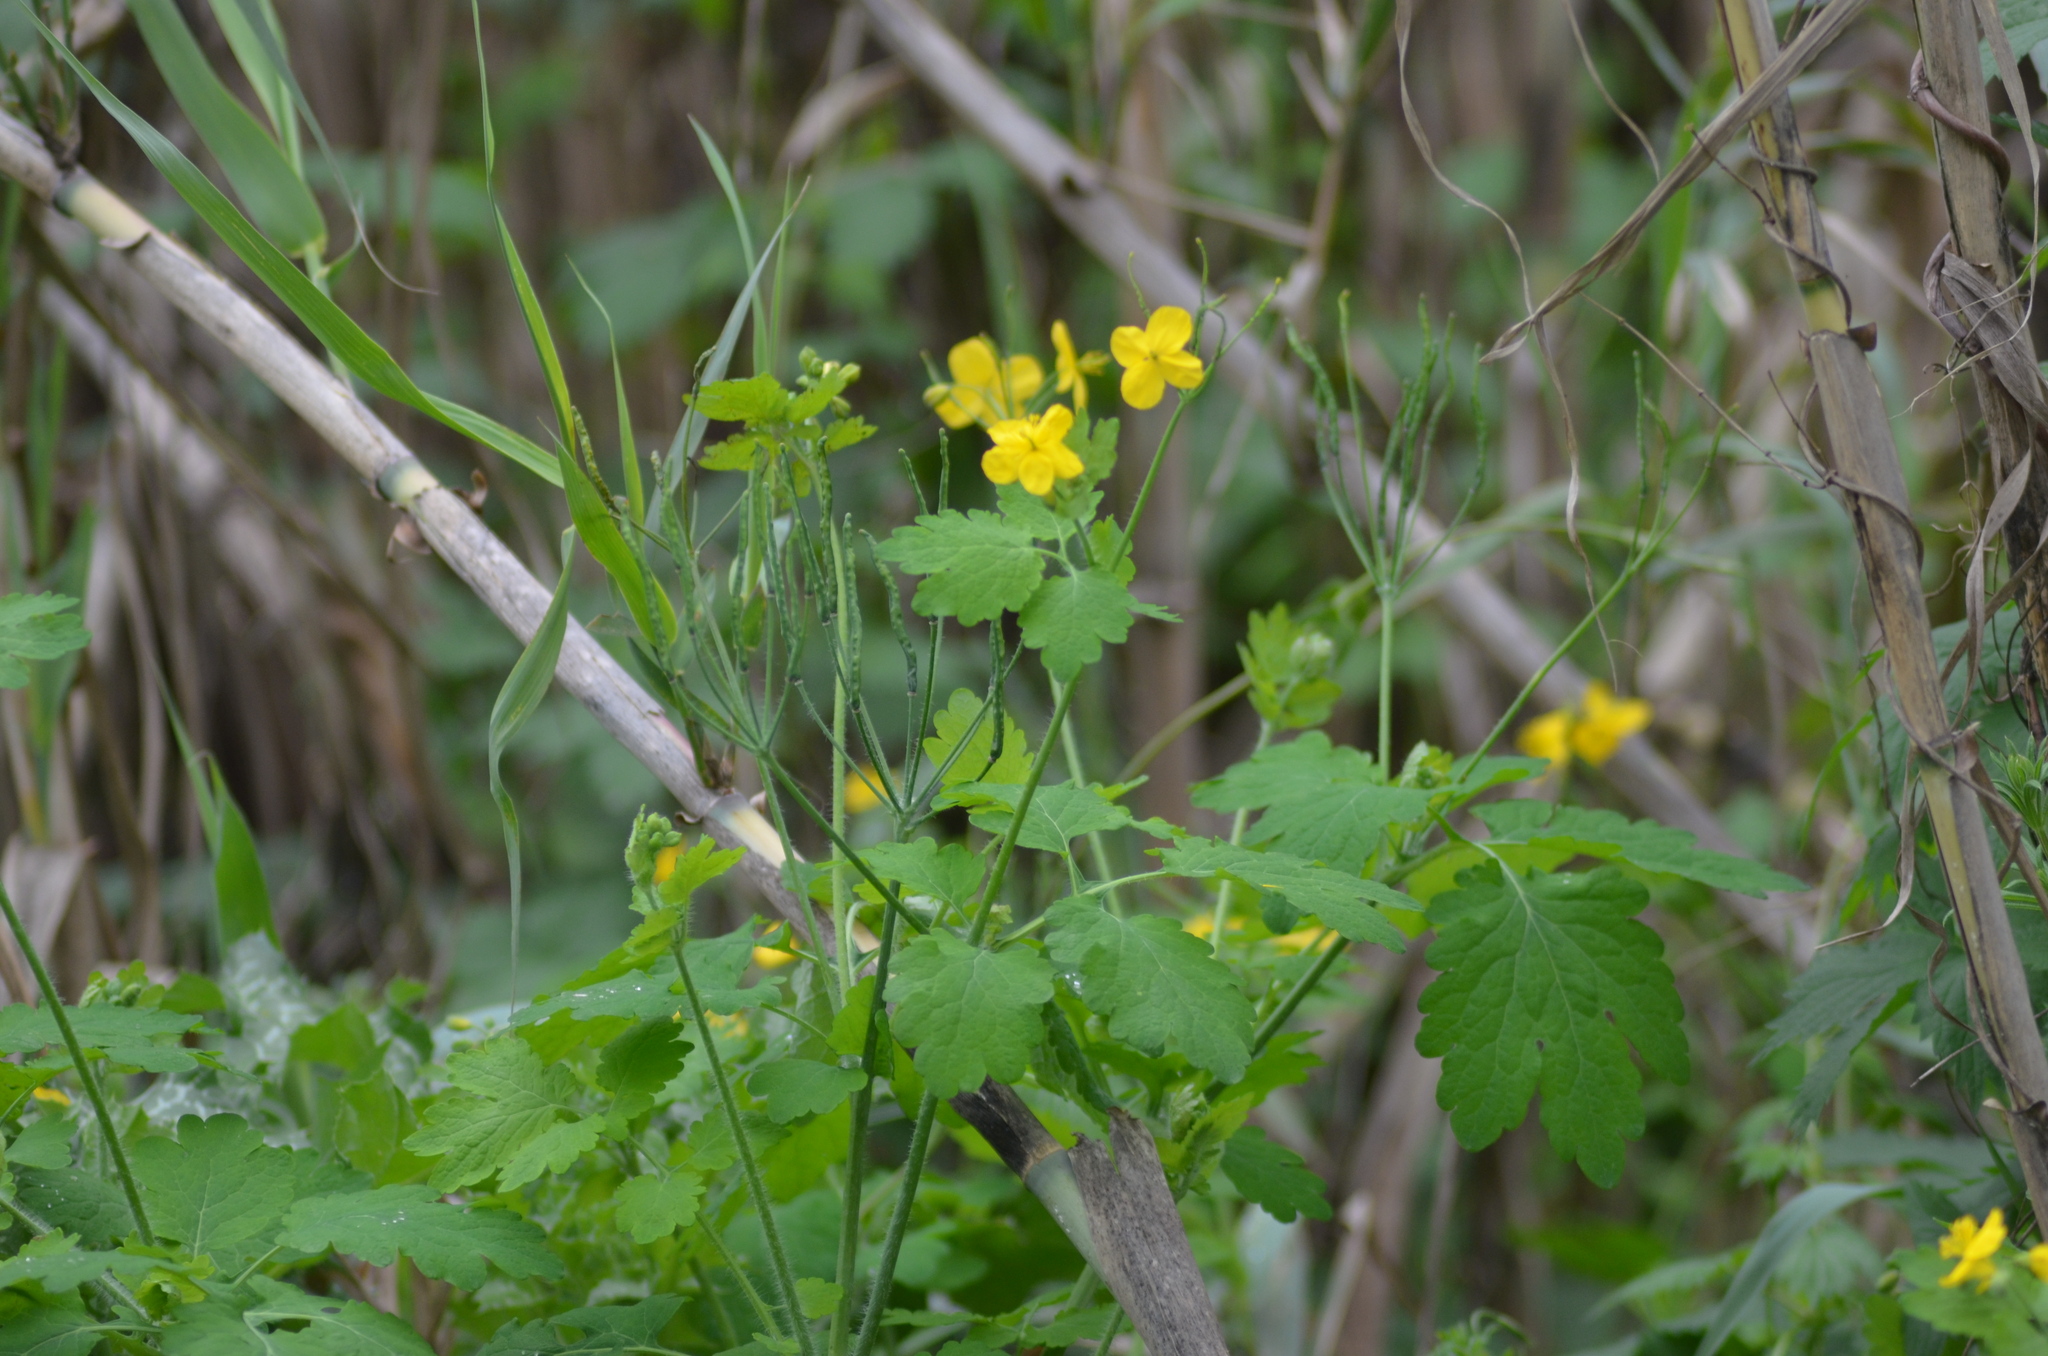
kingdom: Plantae
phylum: Tracheophyta
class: Magnoliopsida
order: Ranunculales
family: Papaveraceae
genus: Chelidonium
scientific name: Chelidonium majus
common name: Greater celandine
